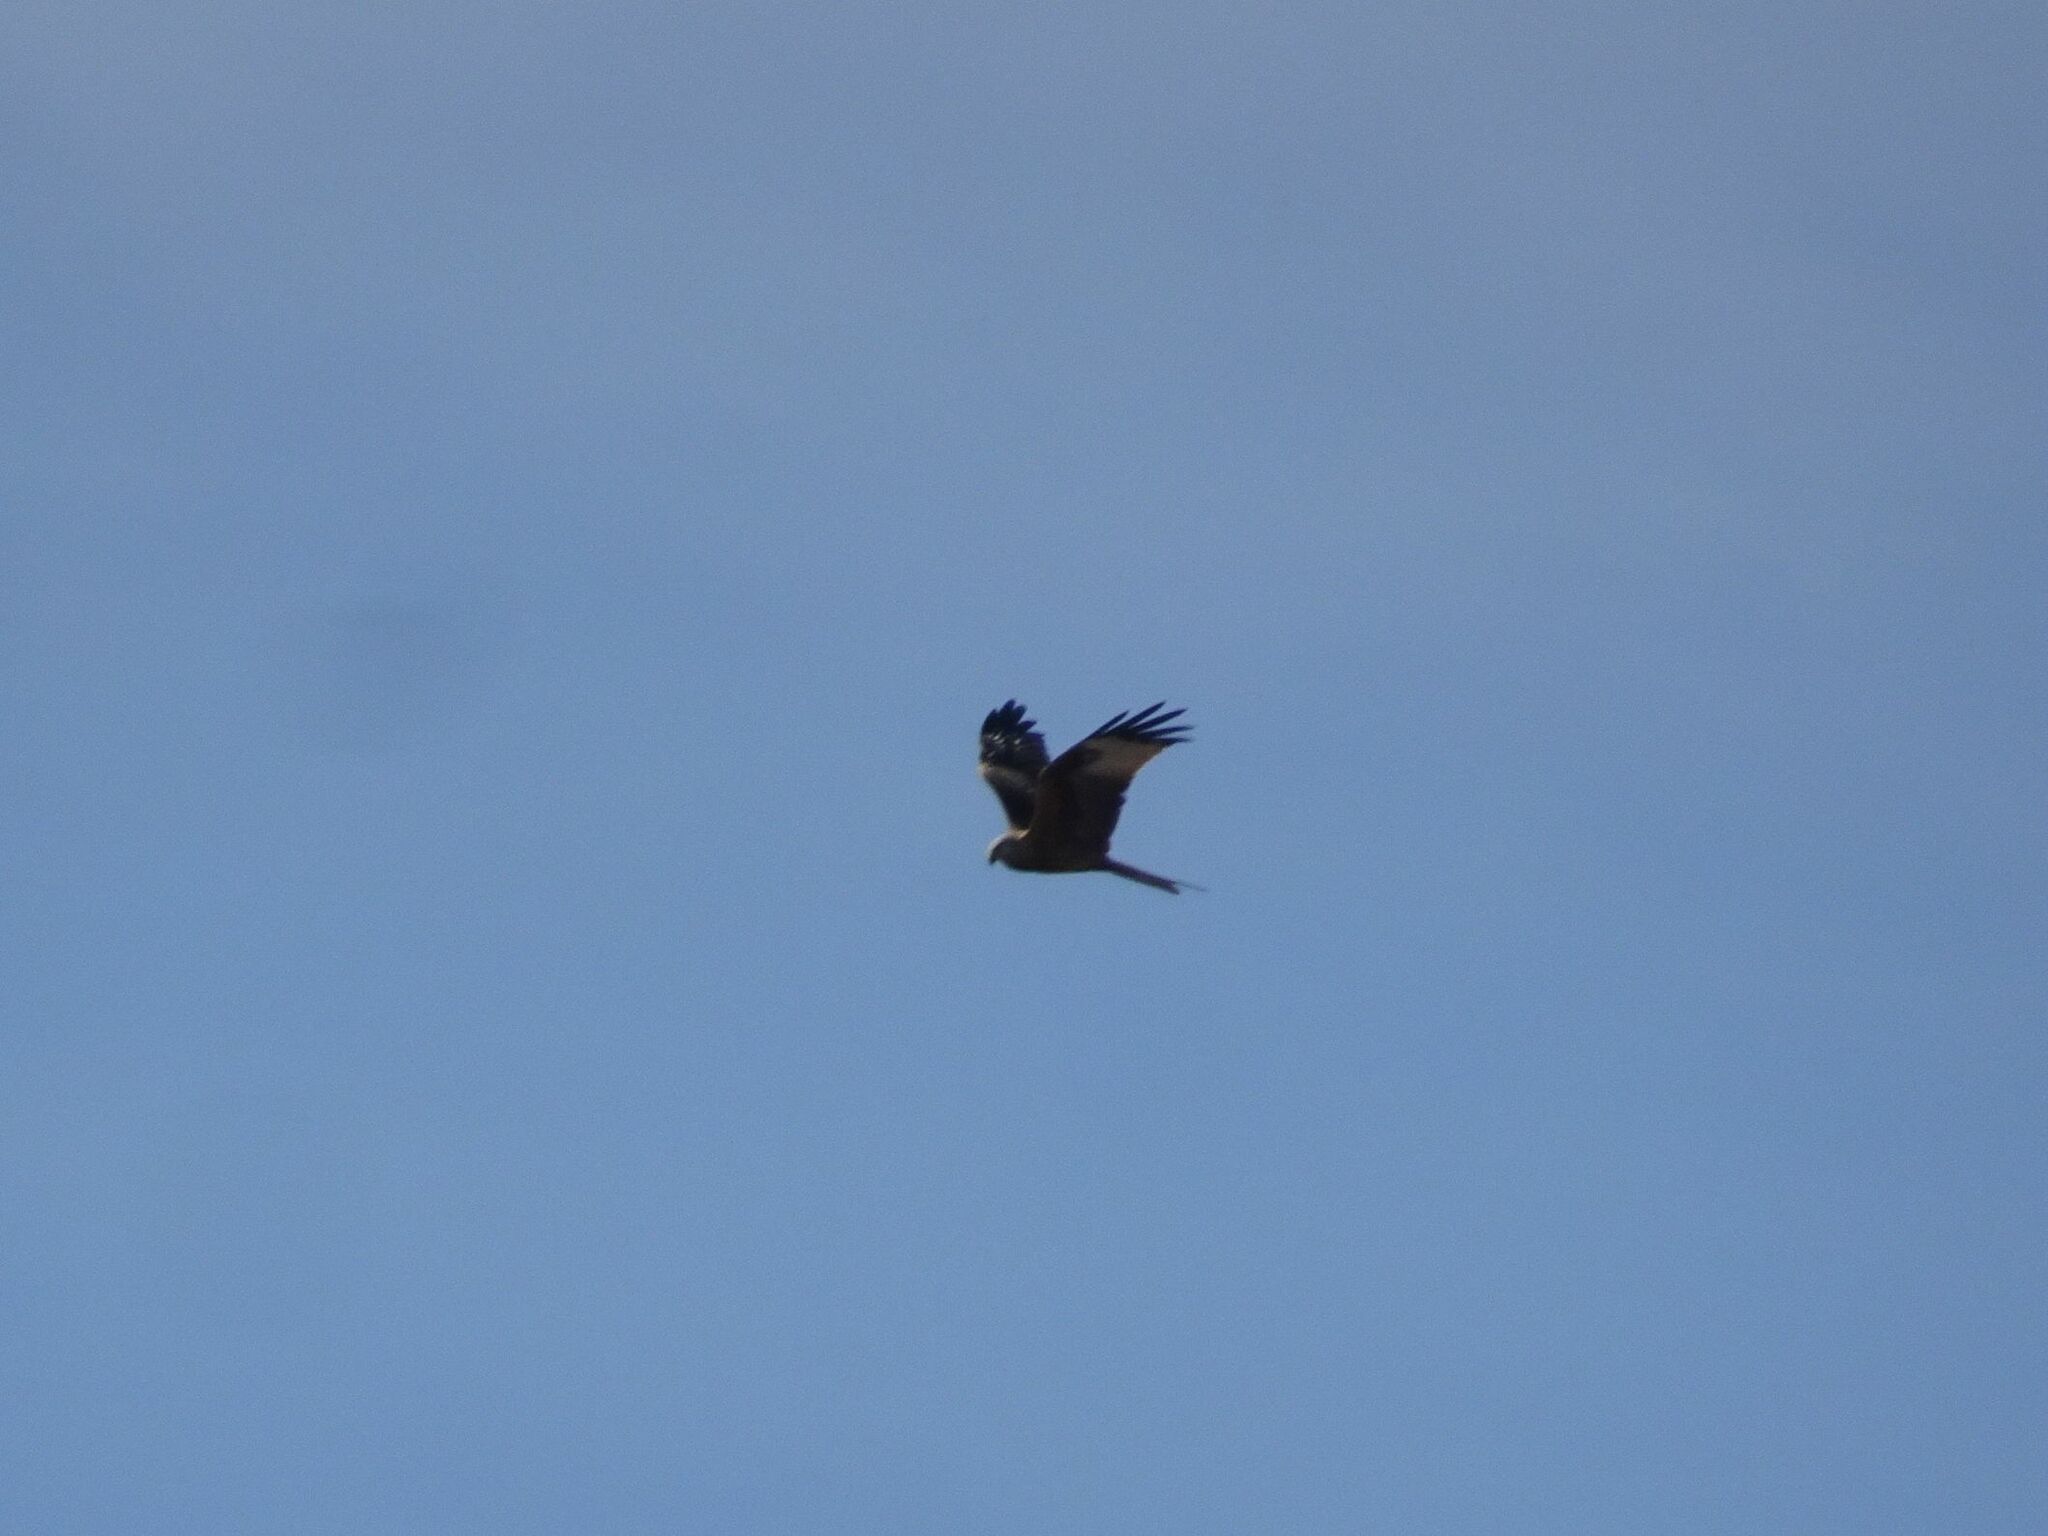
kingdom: Animalia
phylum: Chordata
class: Aves
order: Accipitriformes
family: Accipitridae
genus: Milvus
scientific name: Milvus milvus
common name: Red kite
